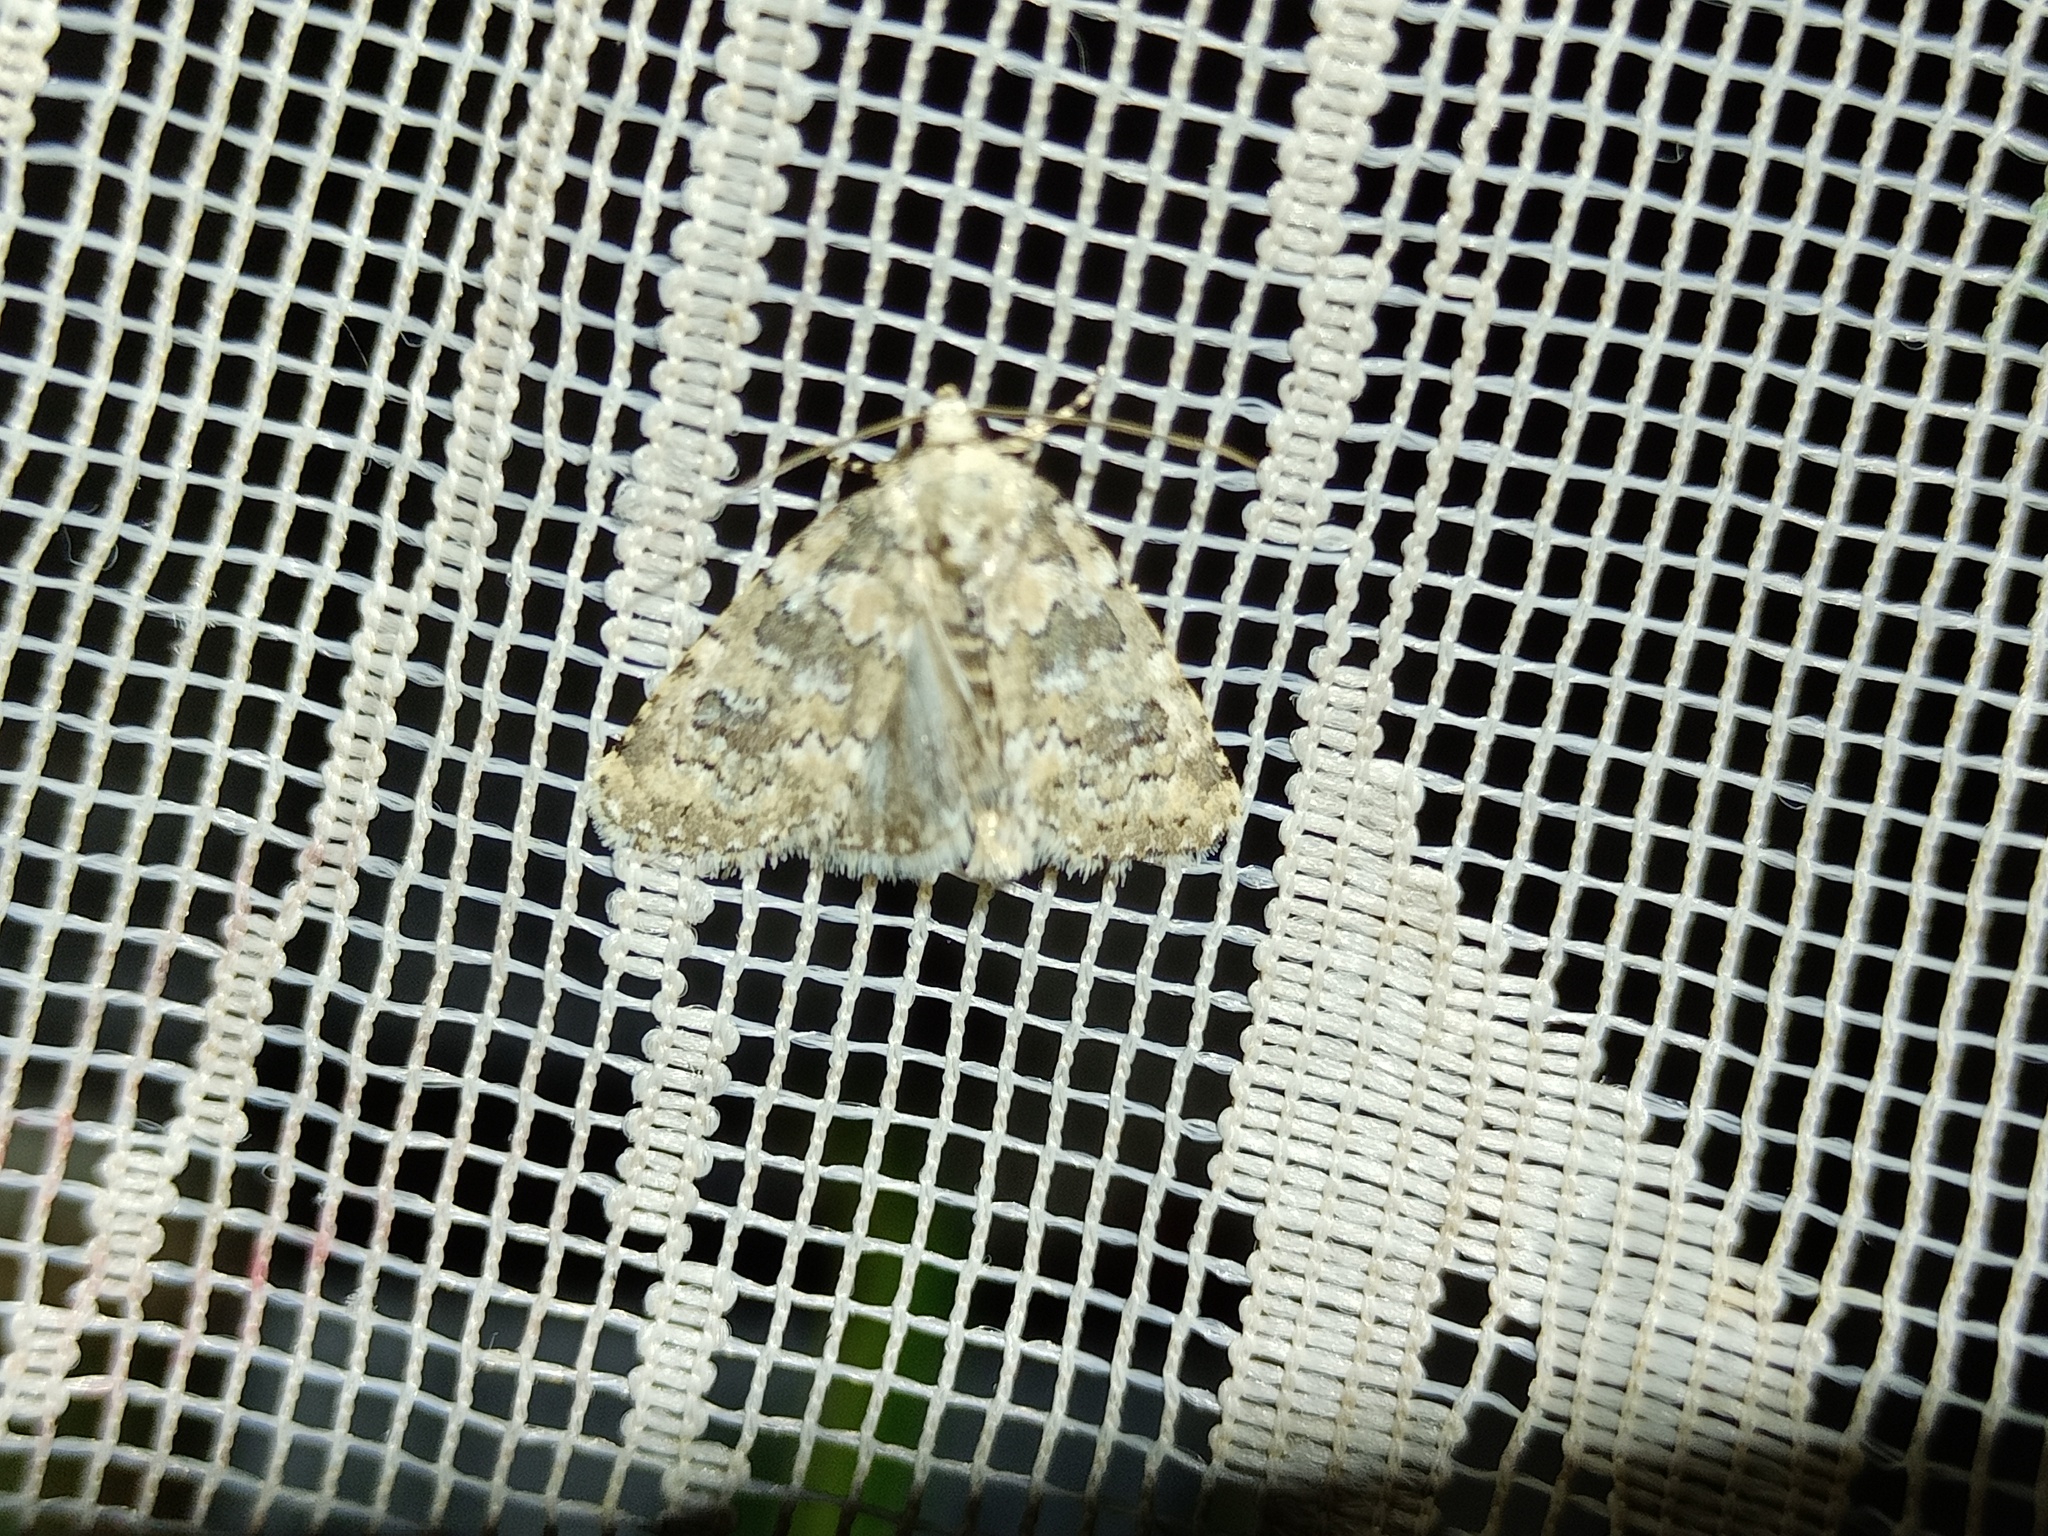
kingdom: Animalia
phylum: Arthropoda
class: Insecta
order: Lepidoptera
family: Noctuidae
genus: Bryophila
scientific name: Bryophila domestica
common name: Marbled beauty
